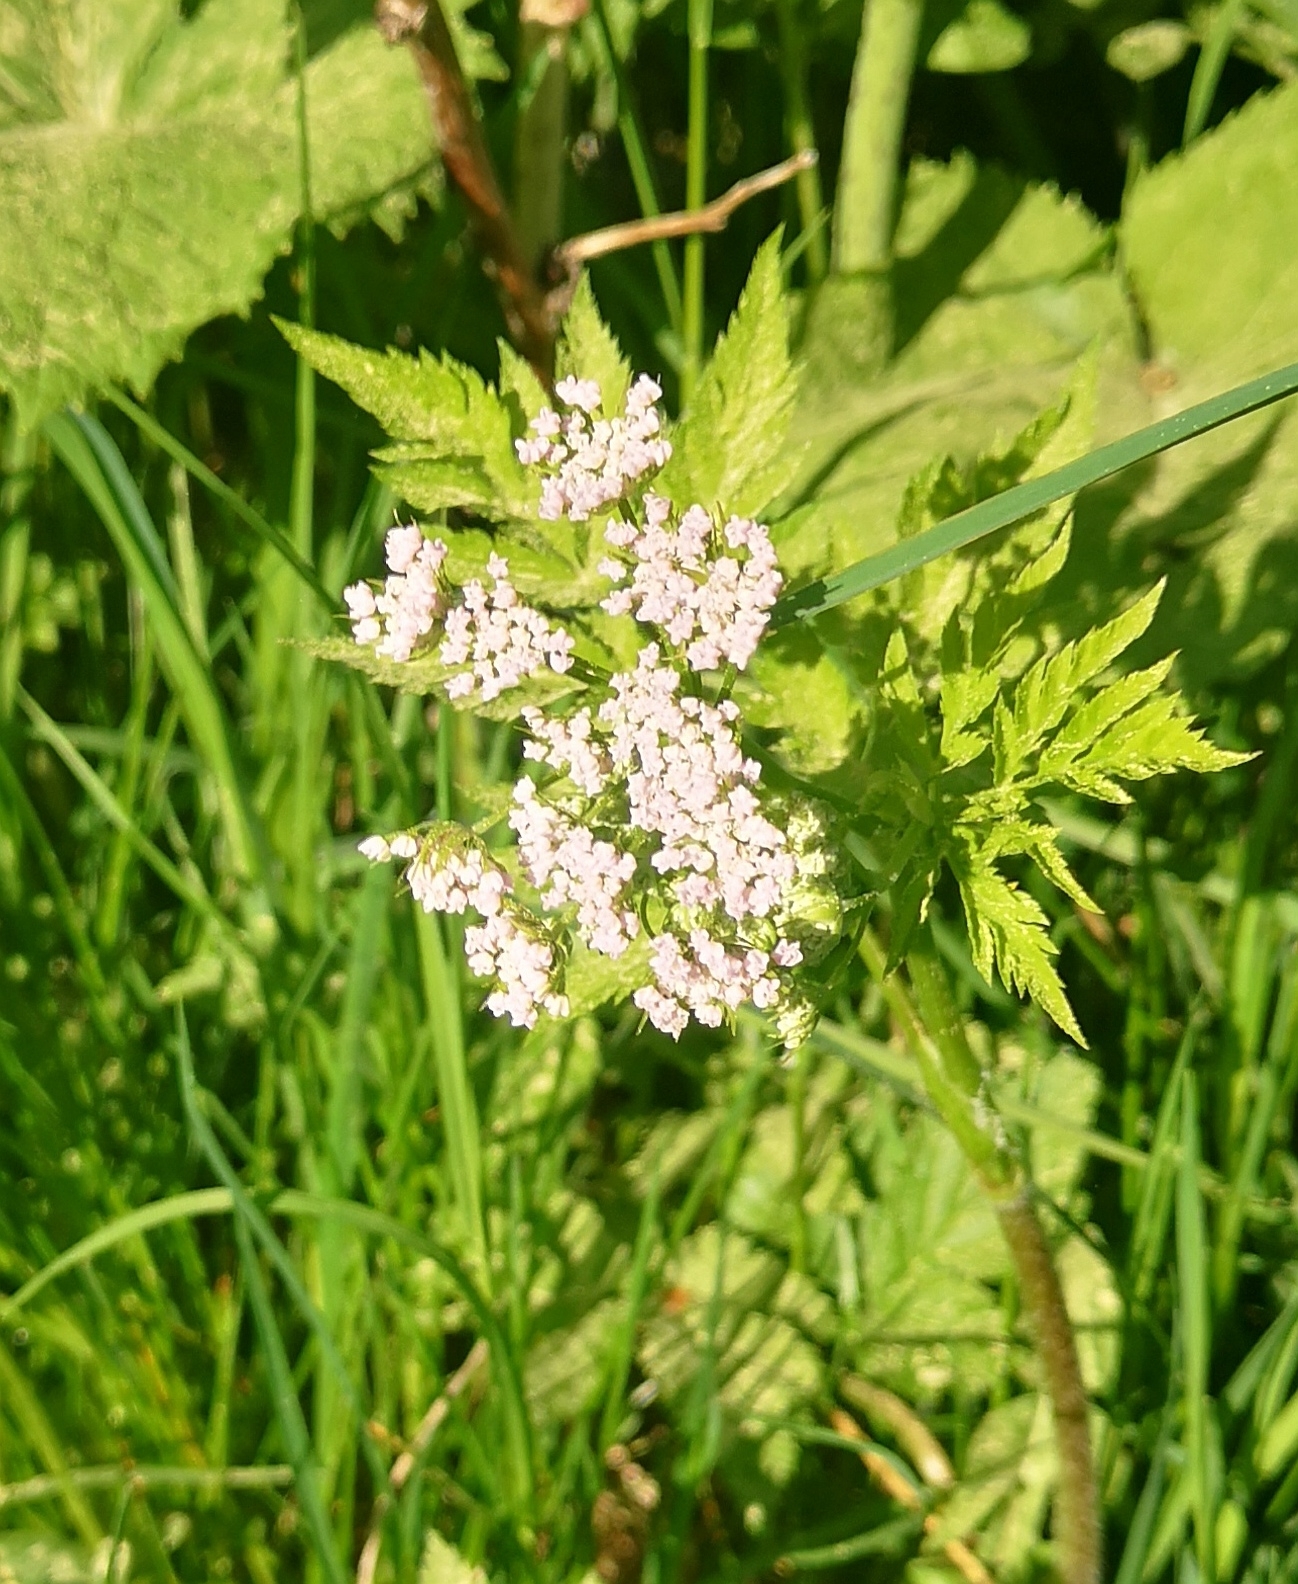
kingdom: Plantae
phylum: Tracheophyta
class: Magnoliopsida
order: Apiales
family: Apiaceae
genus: Chaerophyllum
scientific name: Chaerophyllum hirsutum
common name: Hairy chervil
